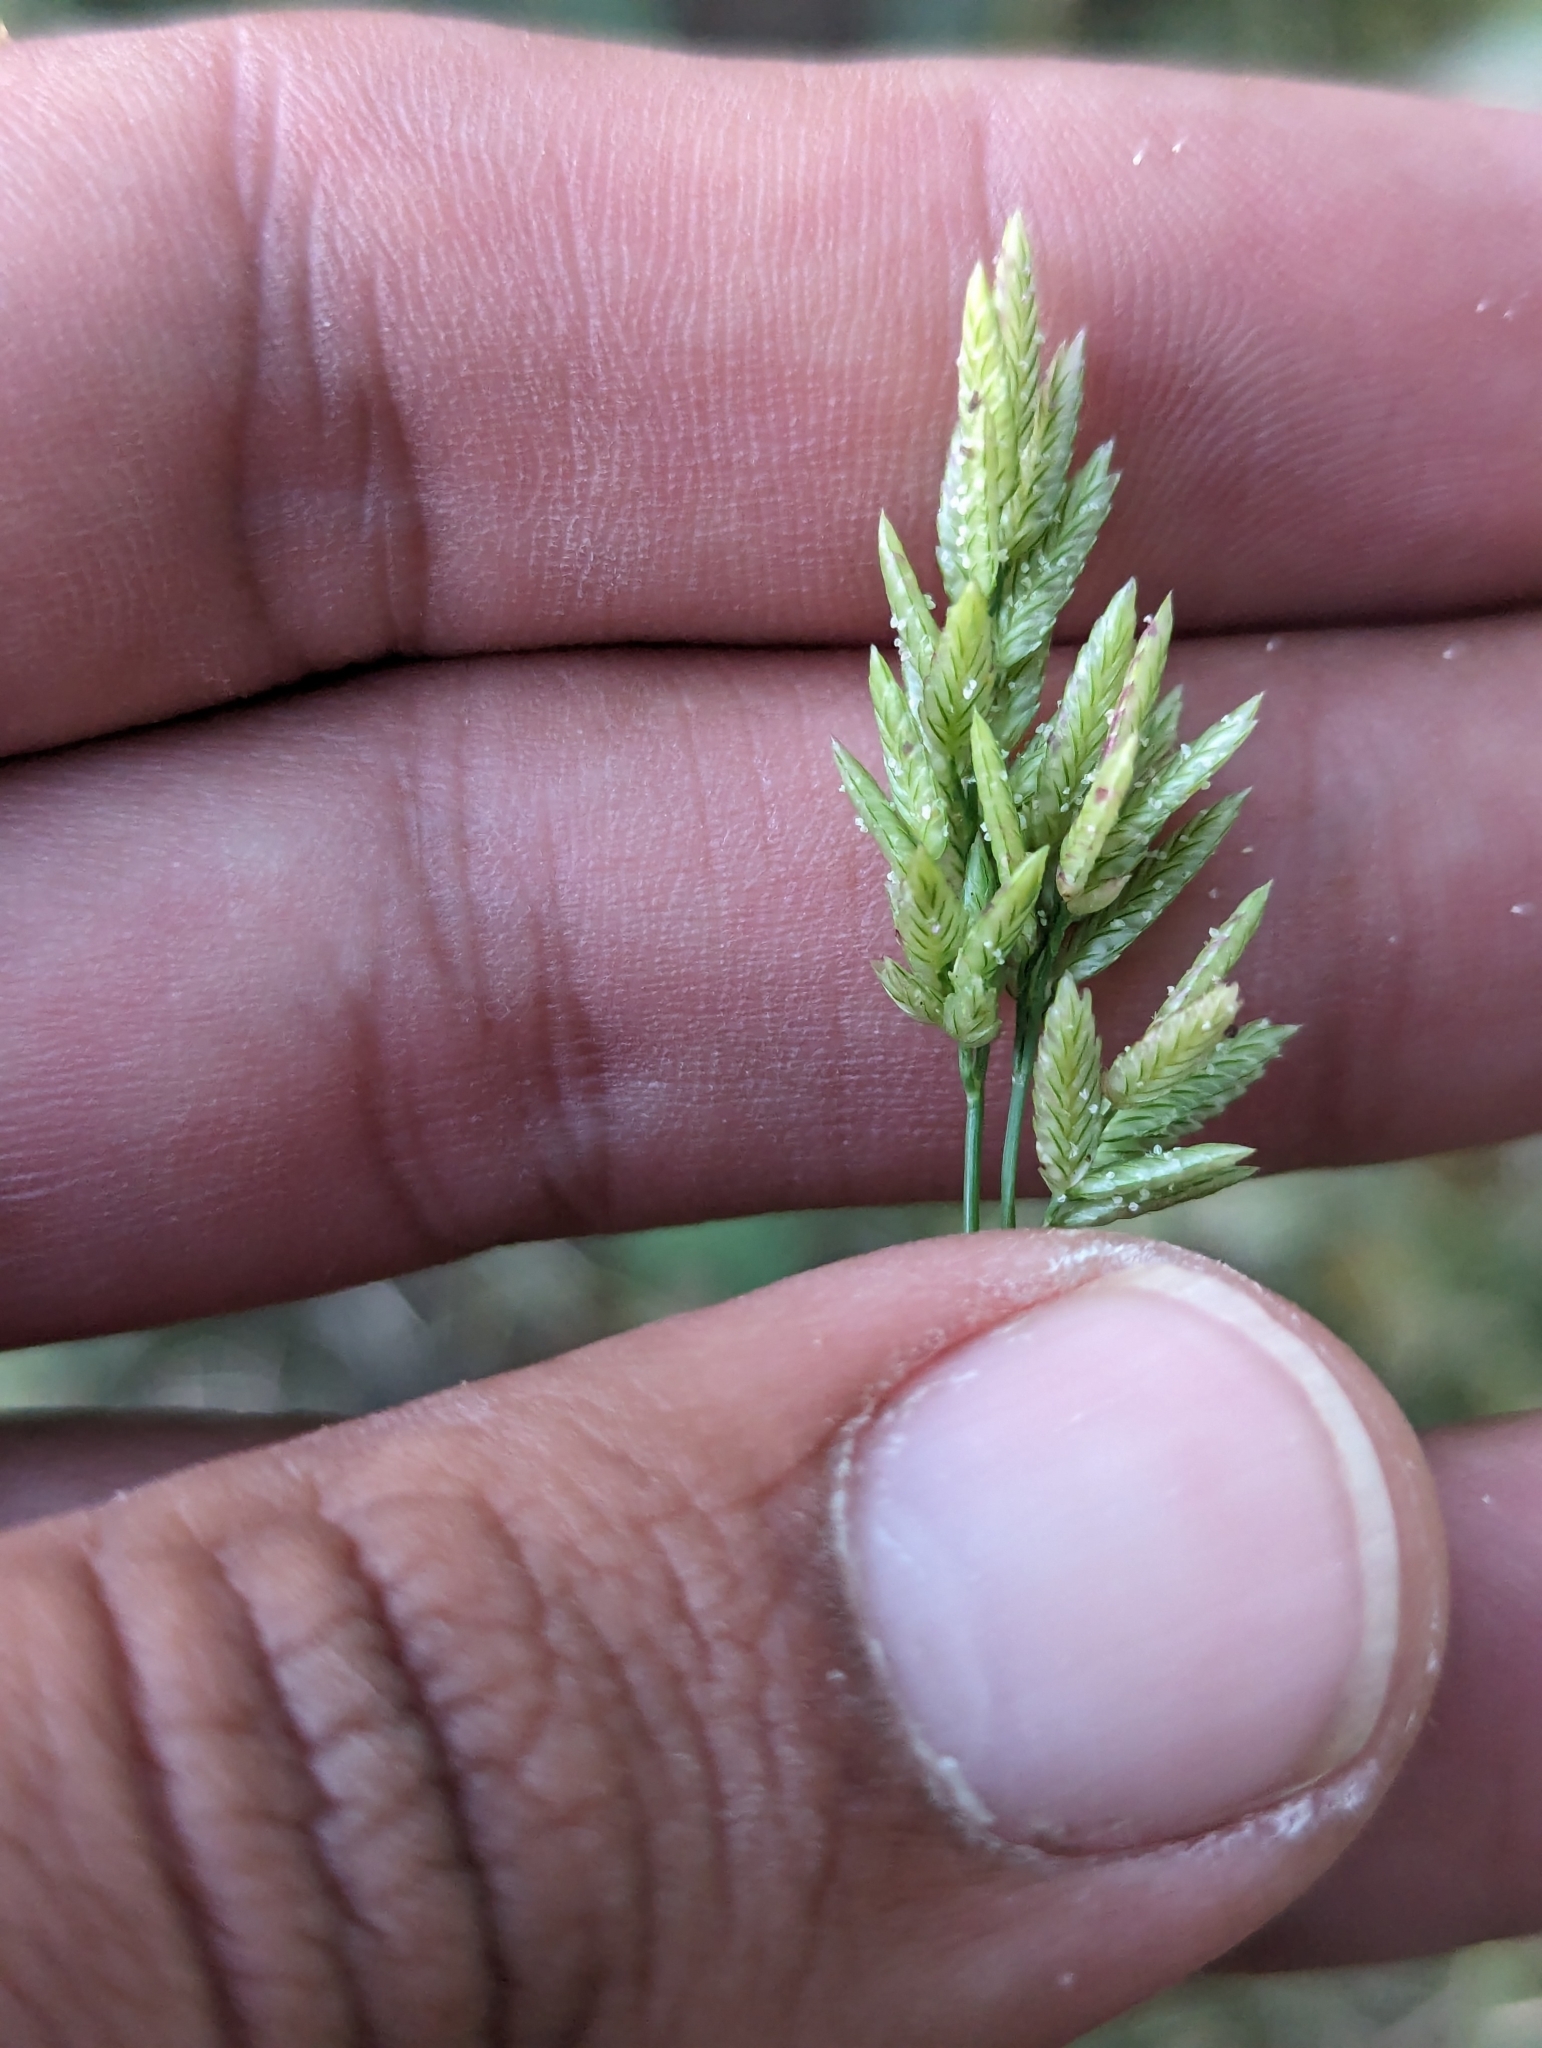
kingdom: Plantae
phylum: Tracheophyta
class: Liliopsida
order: Poales
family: Poaceae
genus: Eragrostis
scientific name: Eragrostis cilianensis
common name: Stinkgrass
